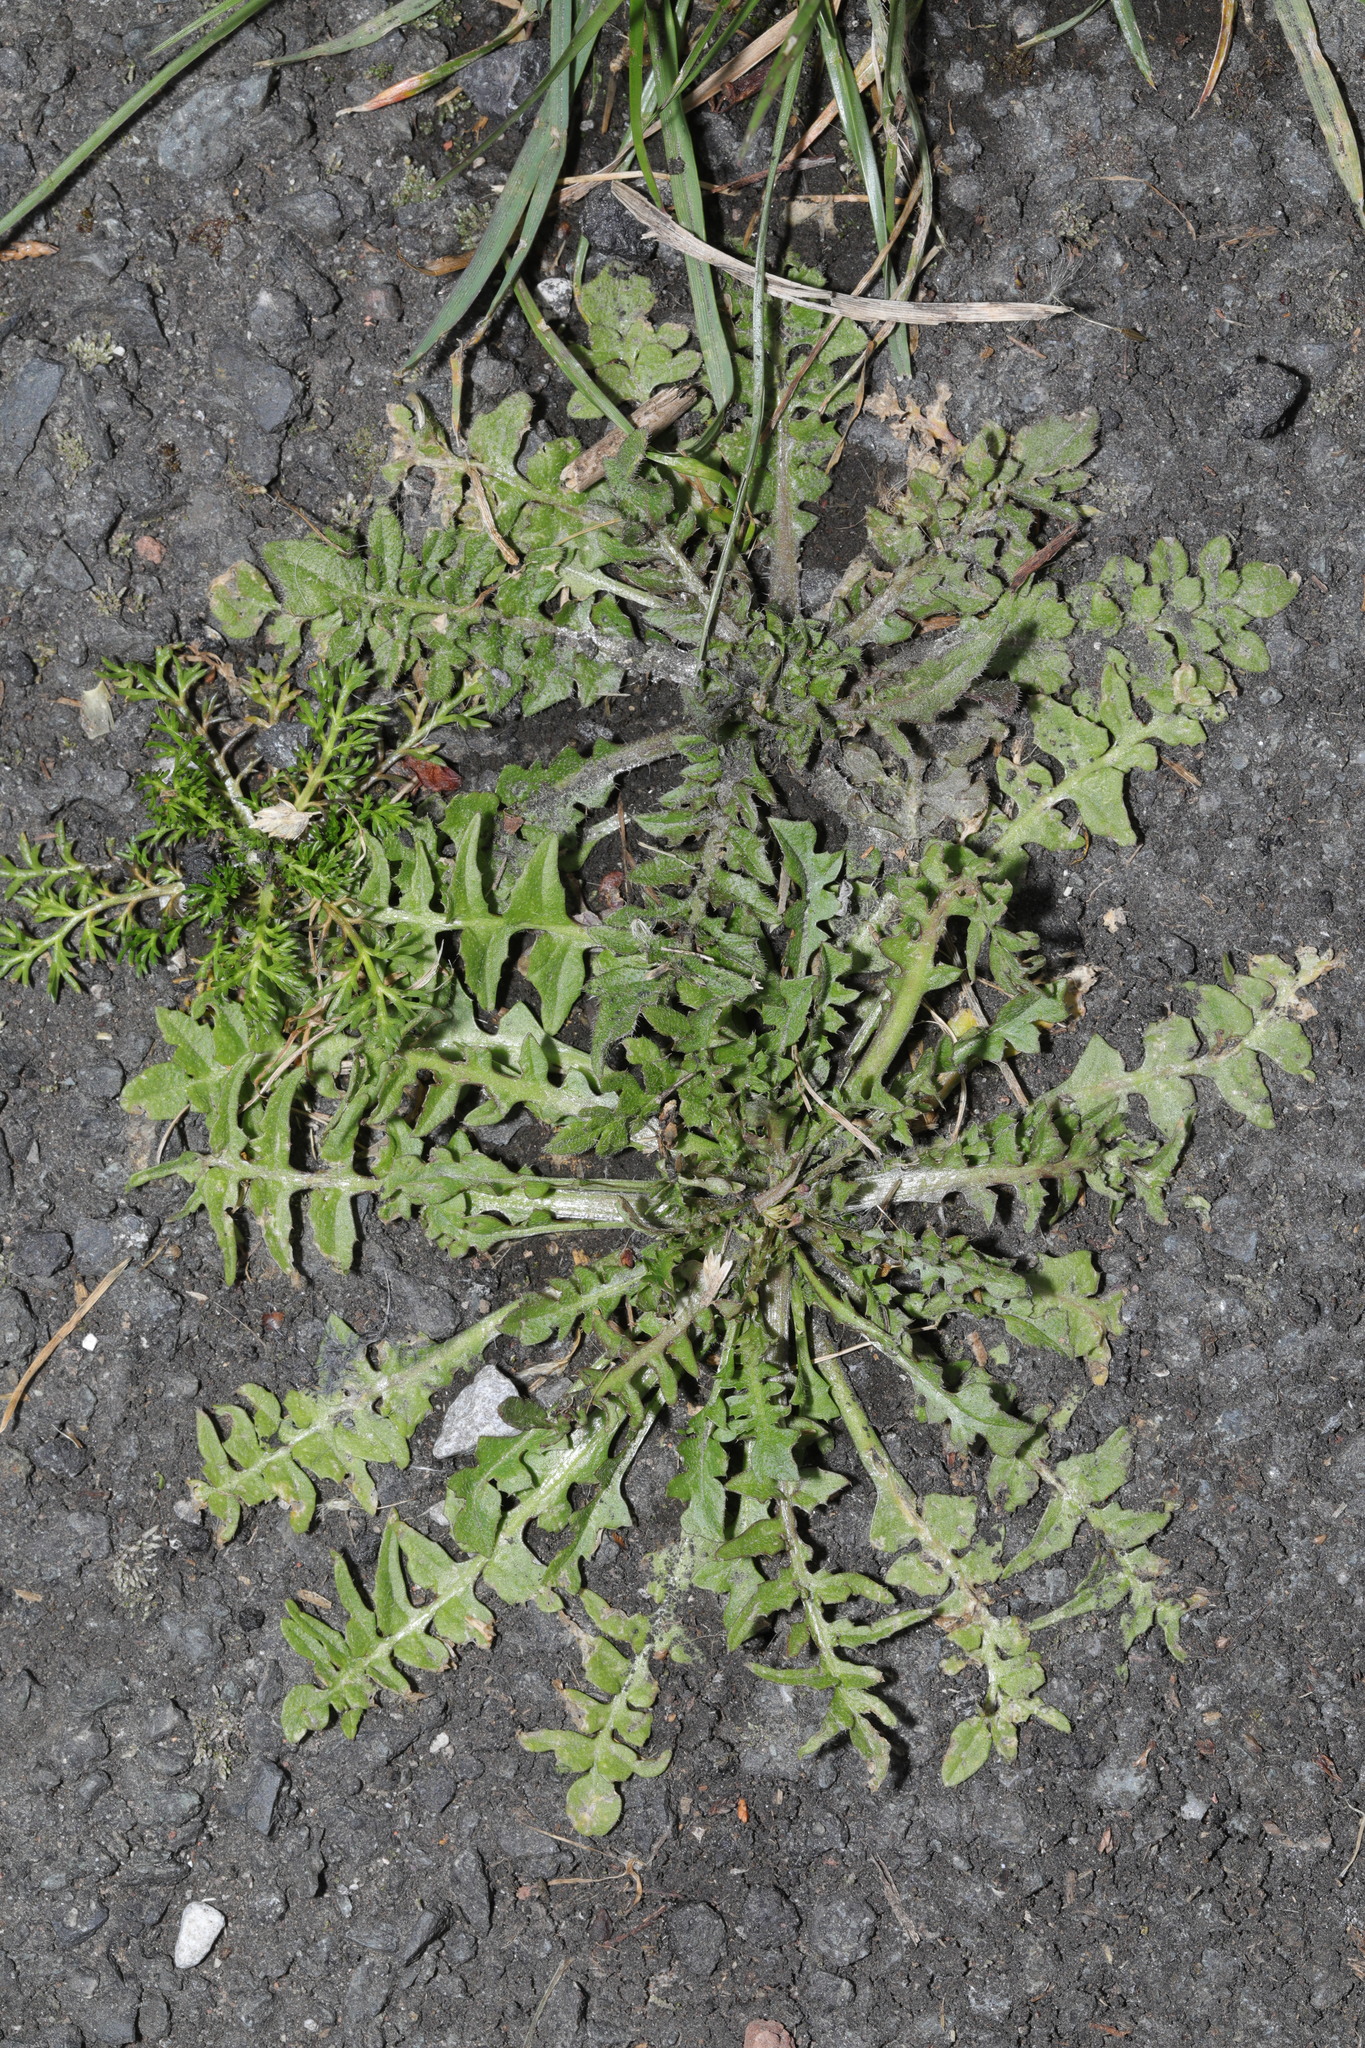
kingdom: Plantae
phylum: Tracheophyta
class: Magnoliopsida
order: Brassicales
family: Brassicaceae
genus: Capsella
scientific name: Capsella bursa-pastoris
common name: Shepherd's purse
